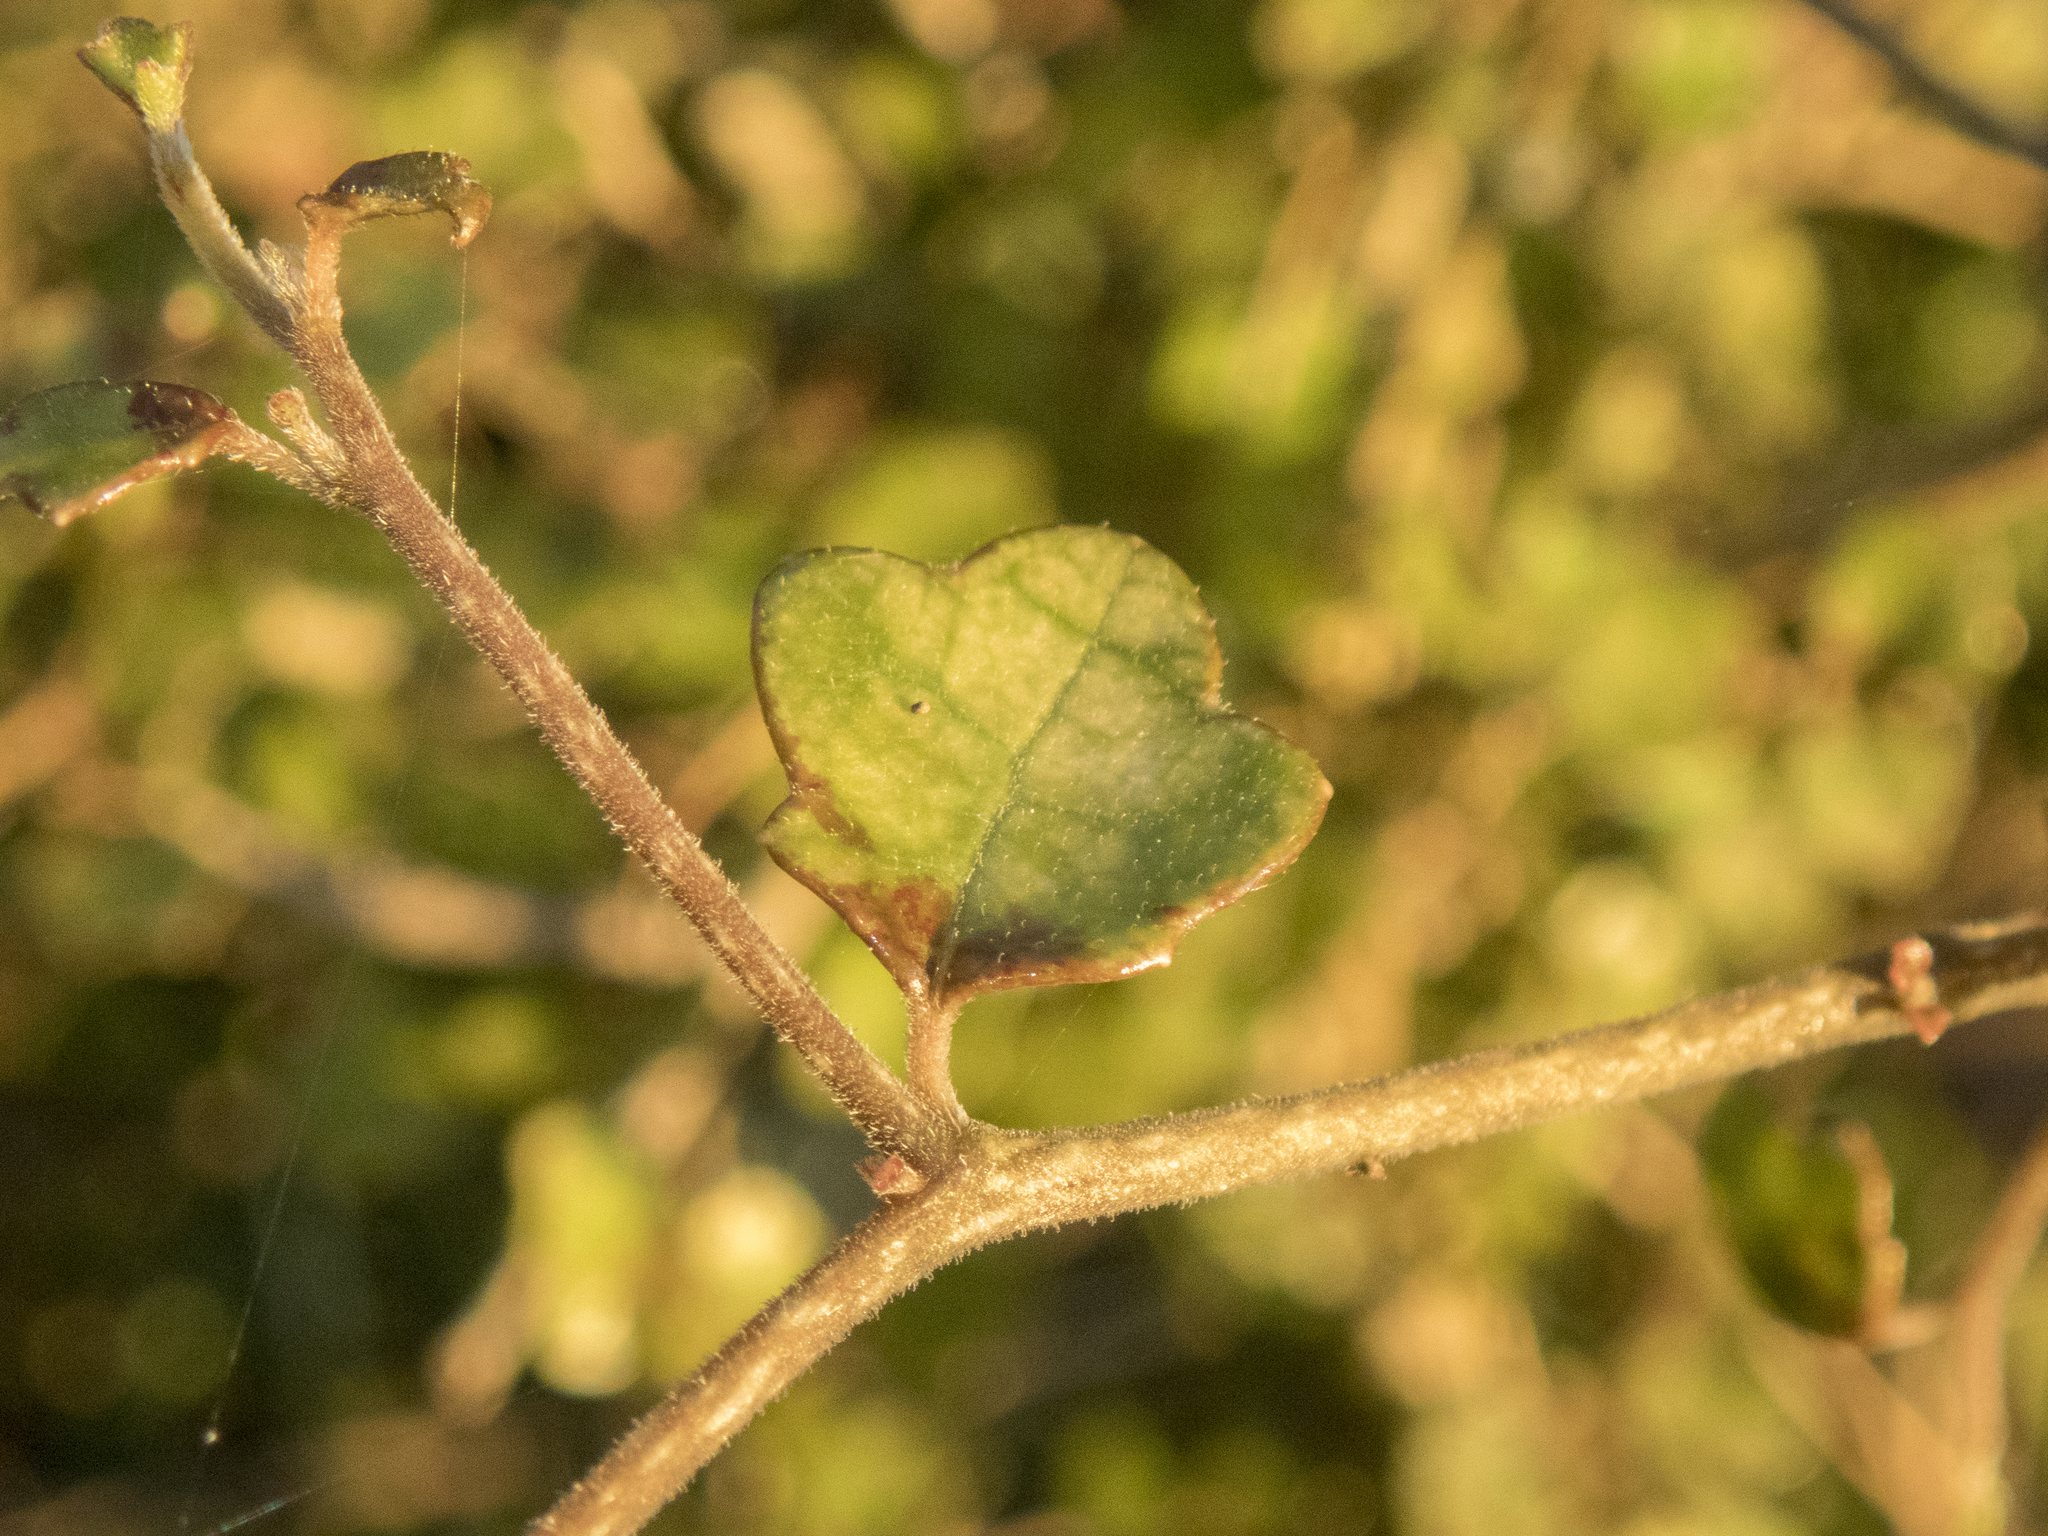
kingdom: Plantae
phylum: Tracheophyta
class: Magnoliopsida
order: Apiales
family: Pennantiaceae
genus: Pennantia
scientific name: Pennantia corymbosa
